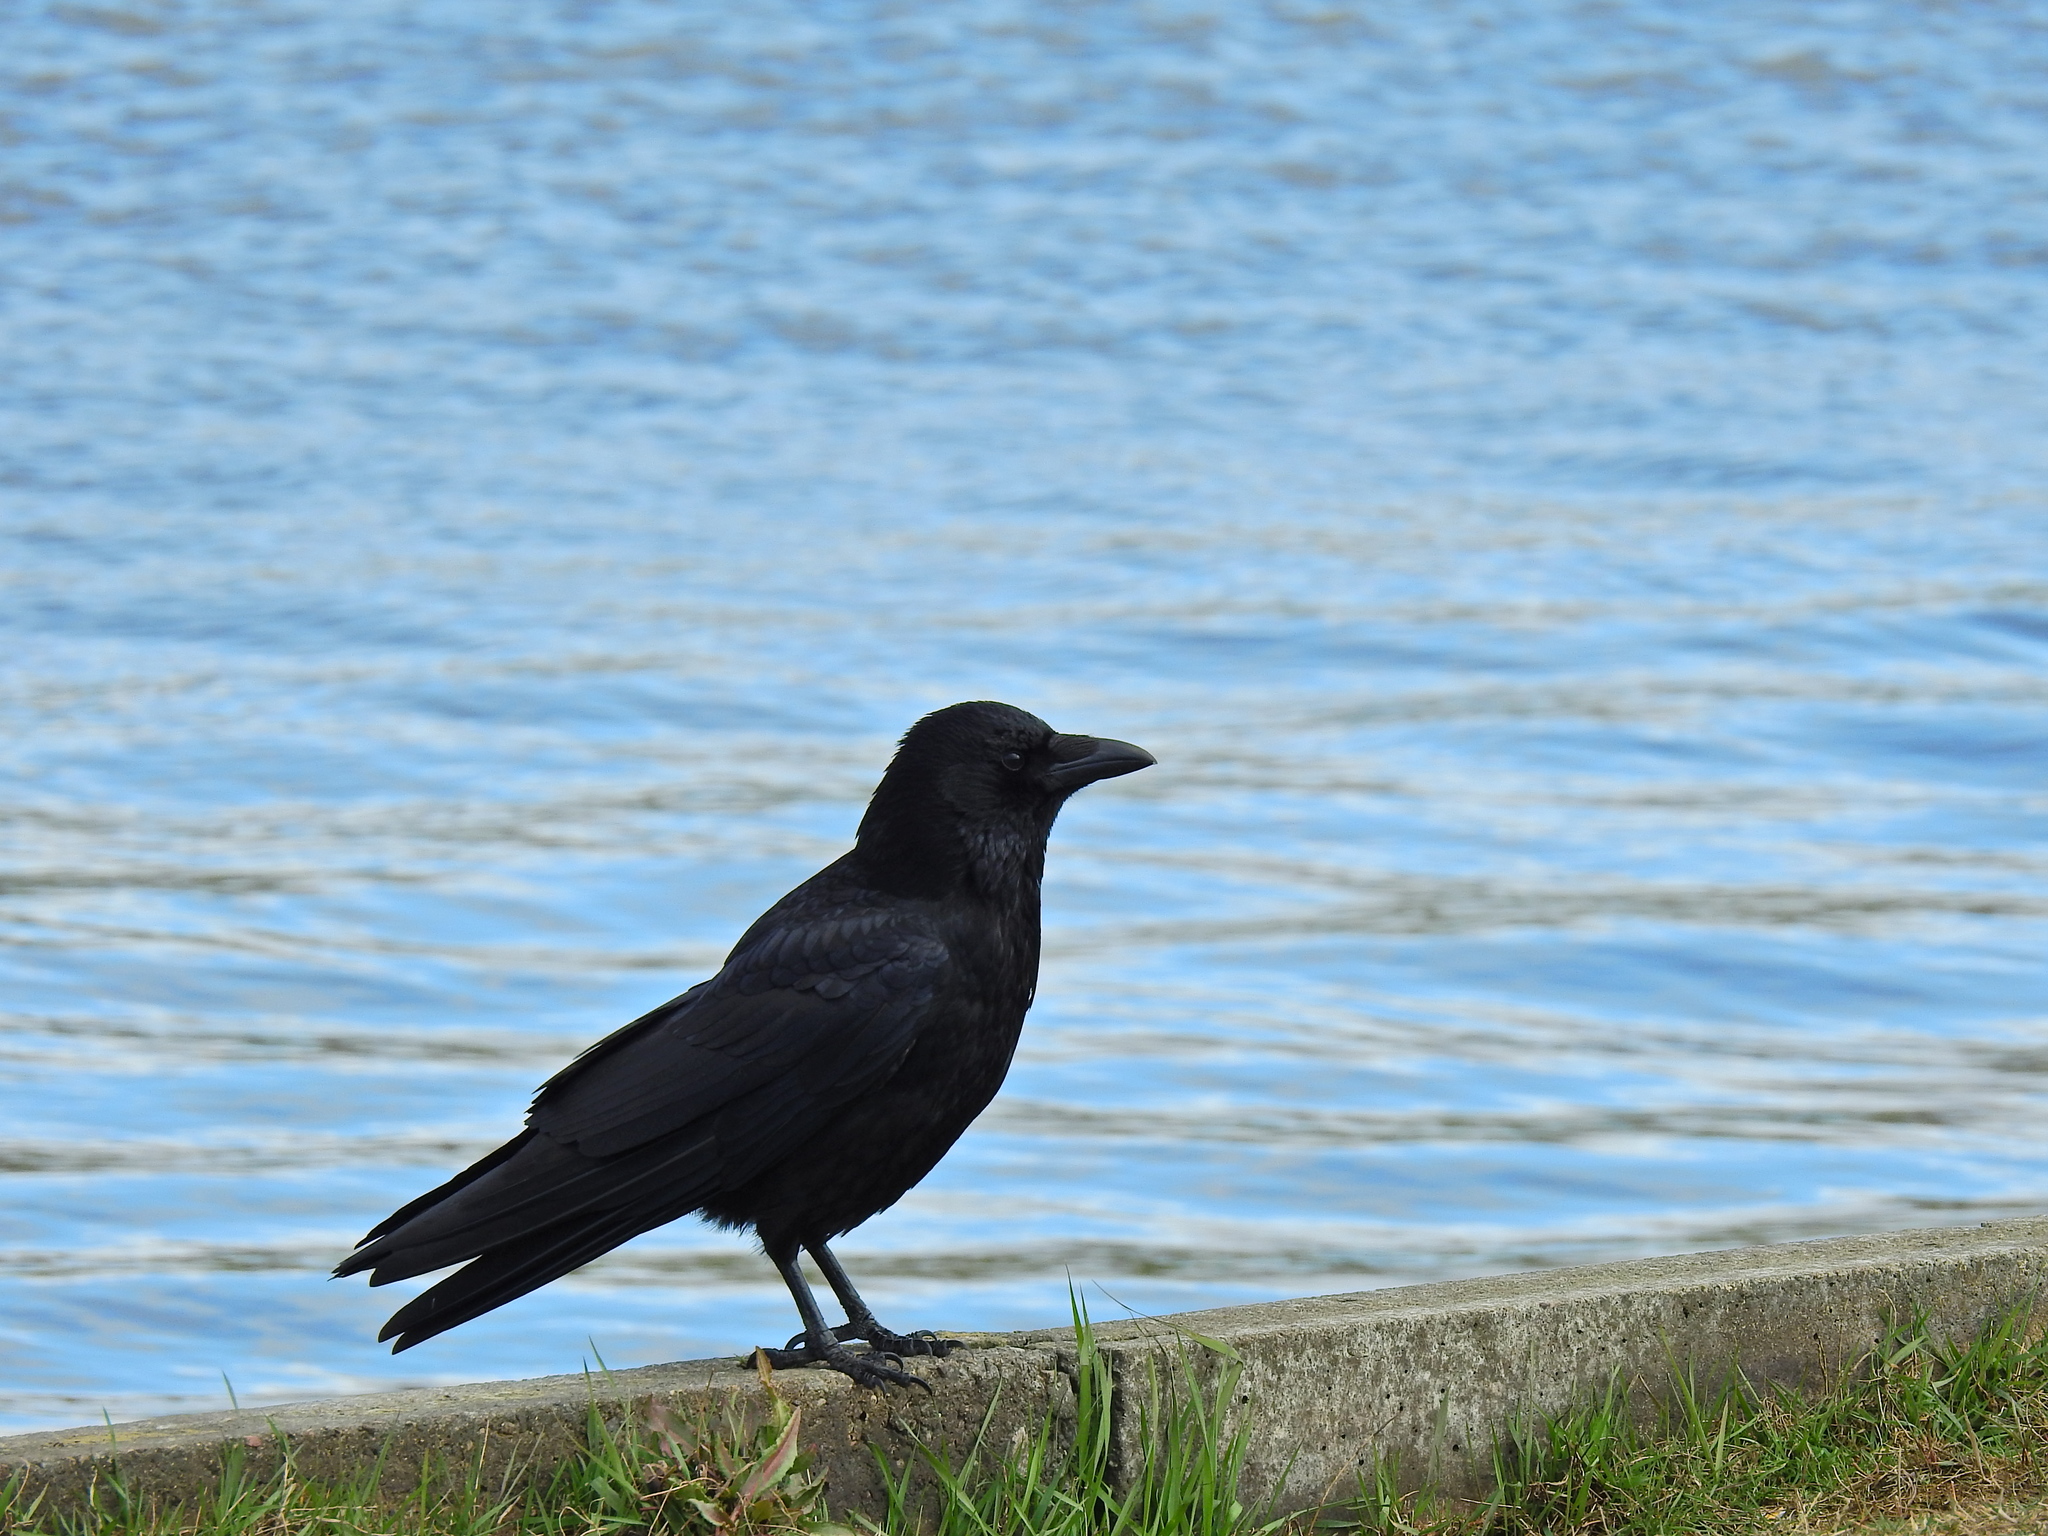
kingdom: Animalia
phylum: Chordata
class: Aves
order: Passeriformes
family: Corvidae
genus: Corvus
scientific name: Corvus corone
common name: Carrion crow
